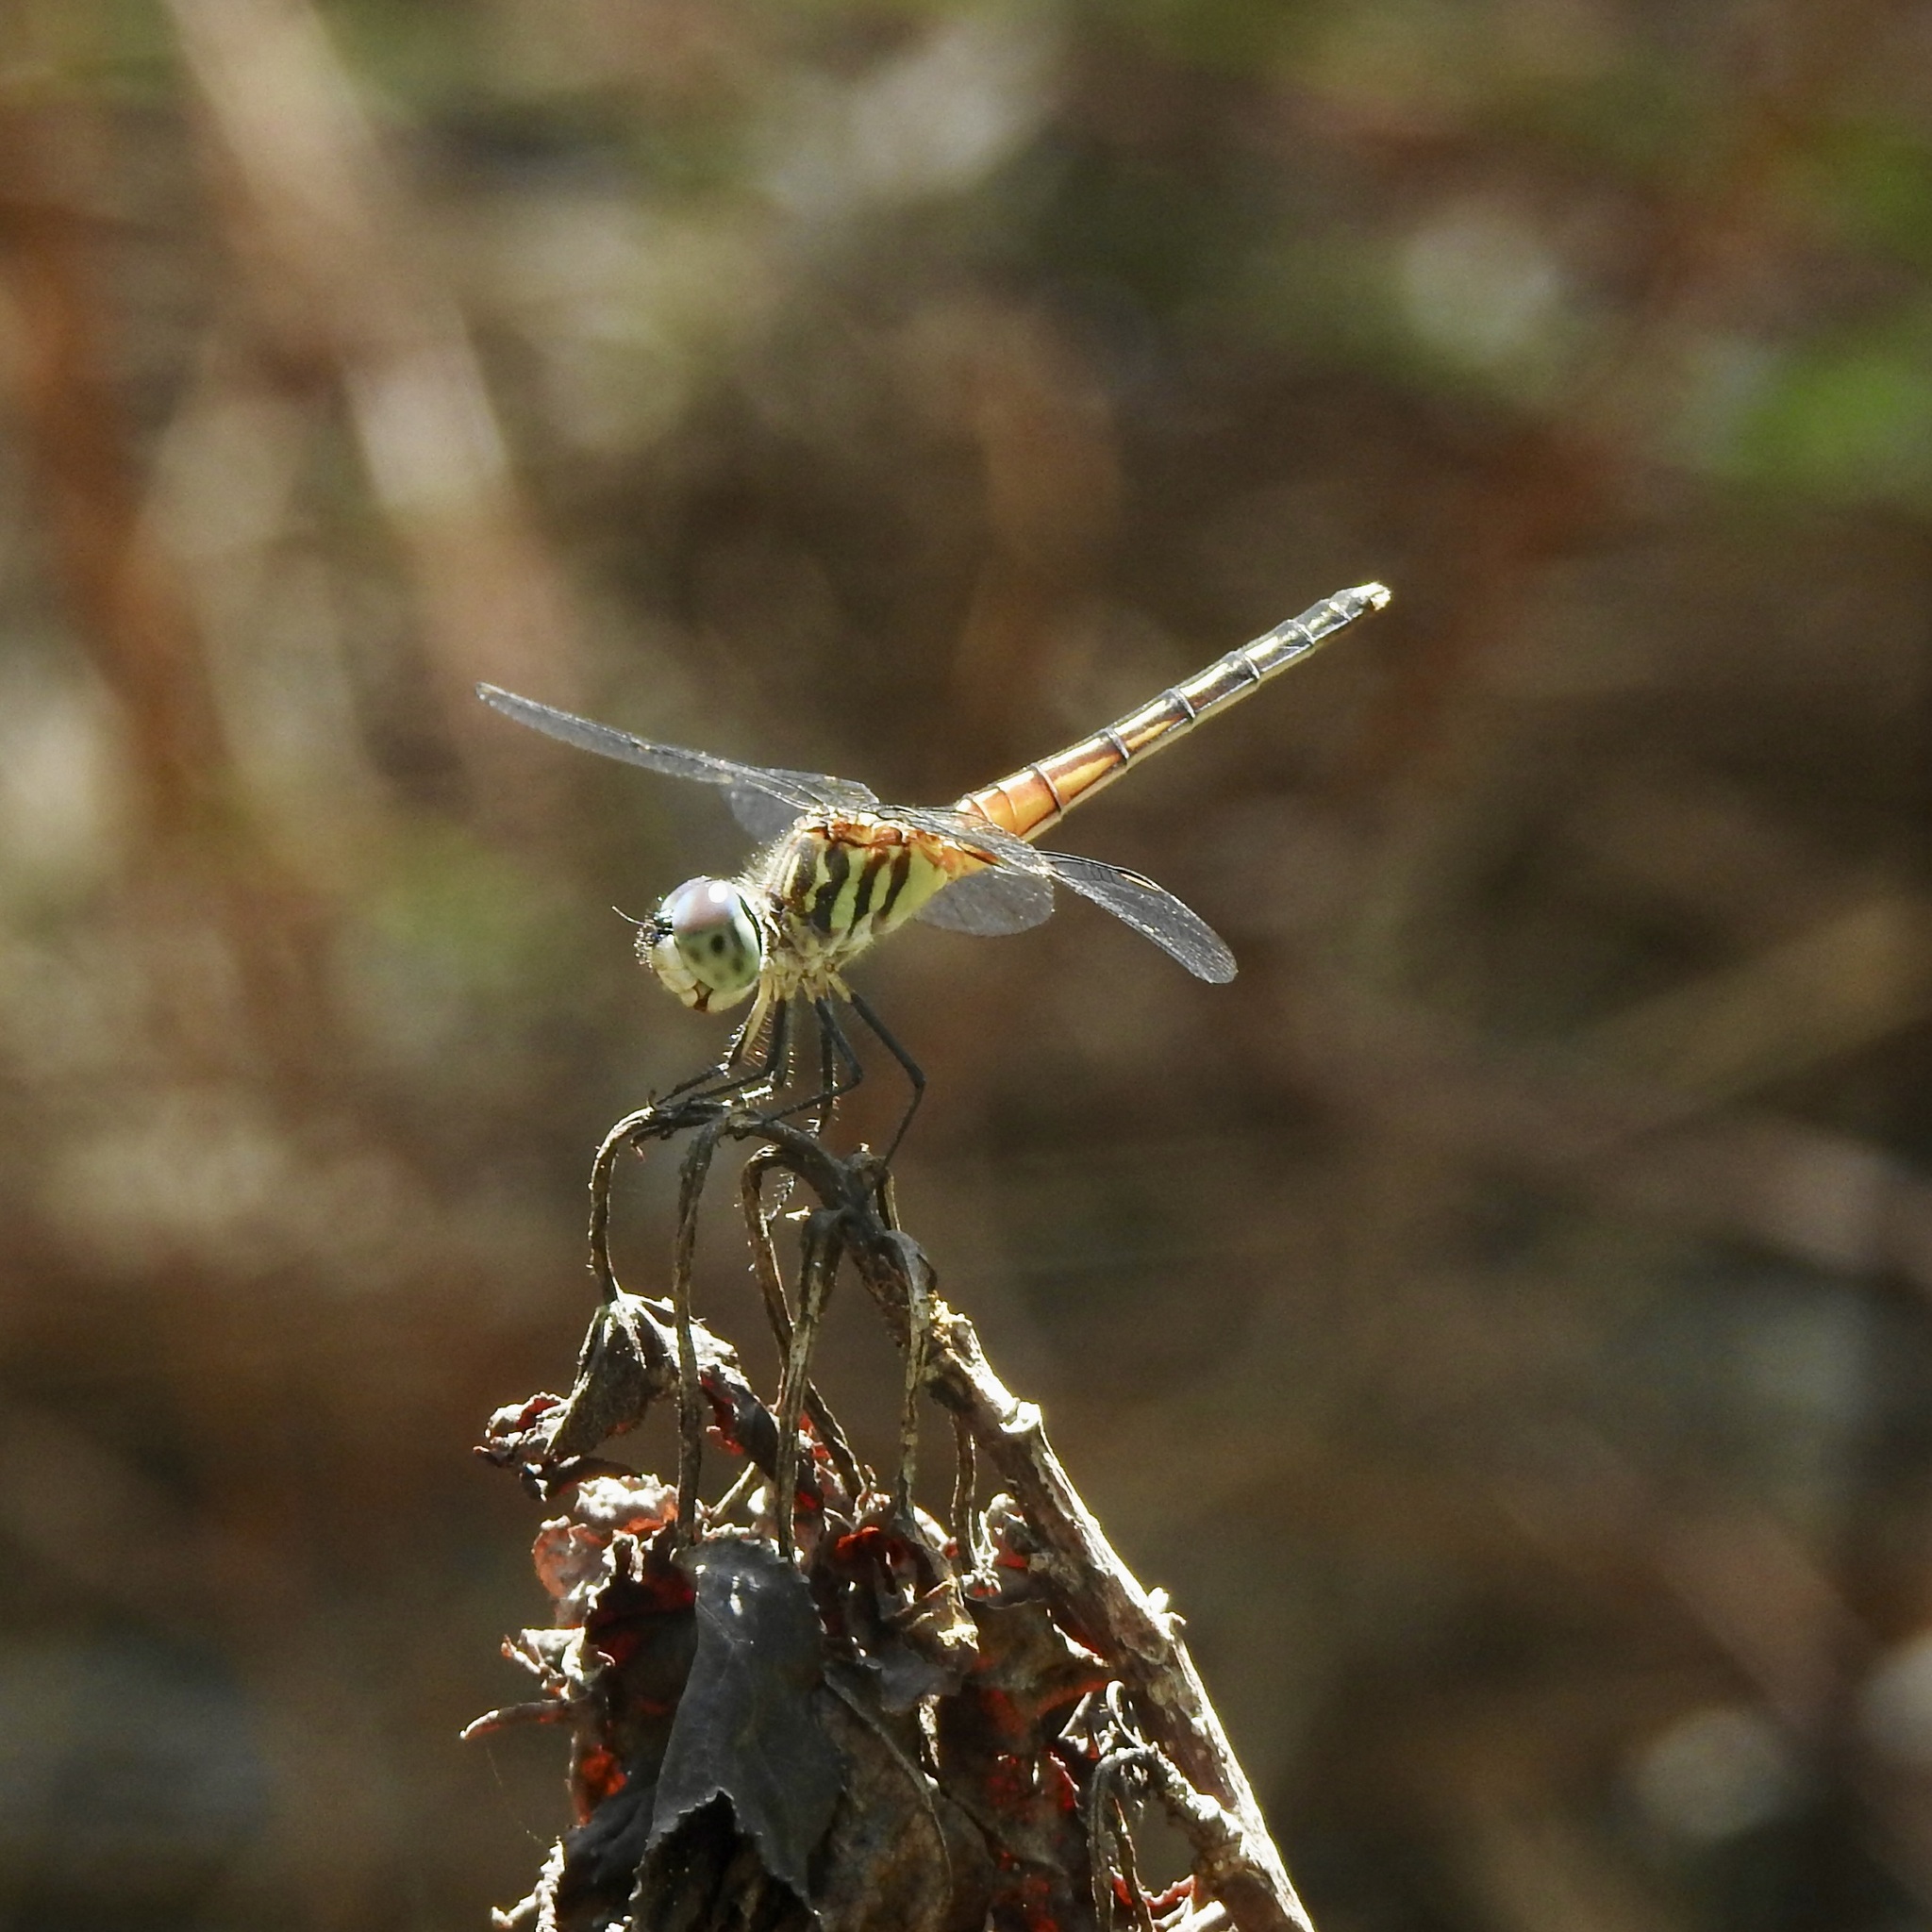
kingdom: Animalia
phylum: Arthropoda
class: Insecta
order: Odonata
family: Libellulidae
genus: Pachydiplax
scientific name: Pachydiplax longipennis
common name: Blue dasher
